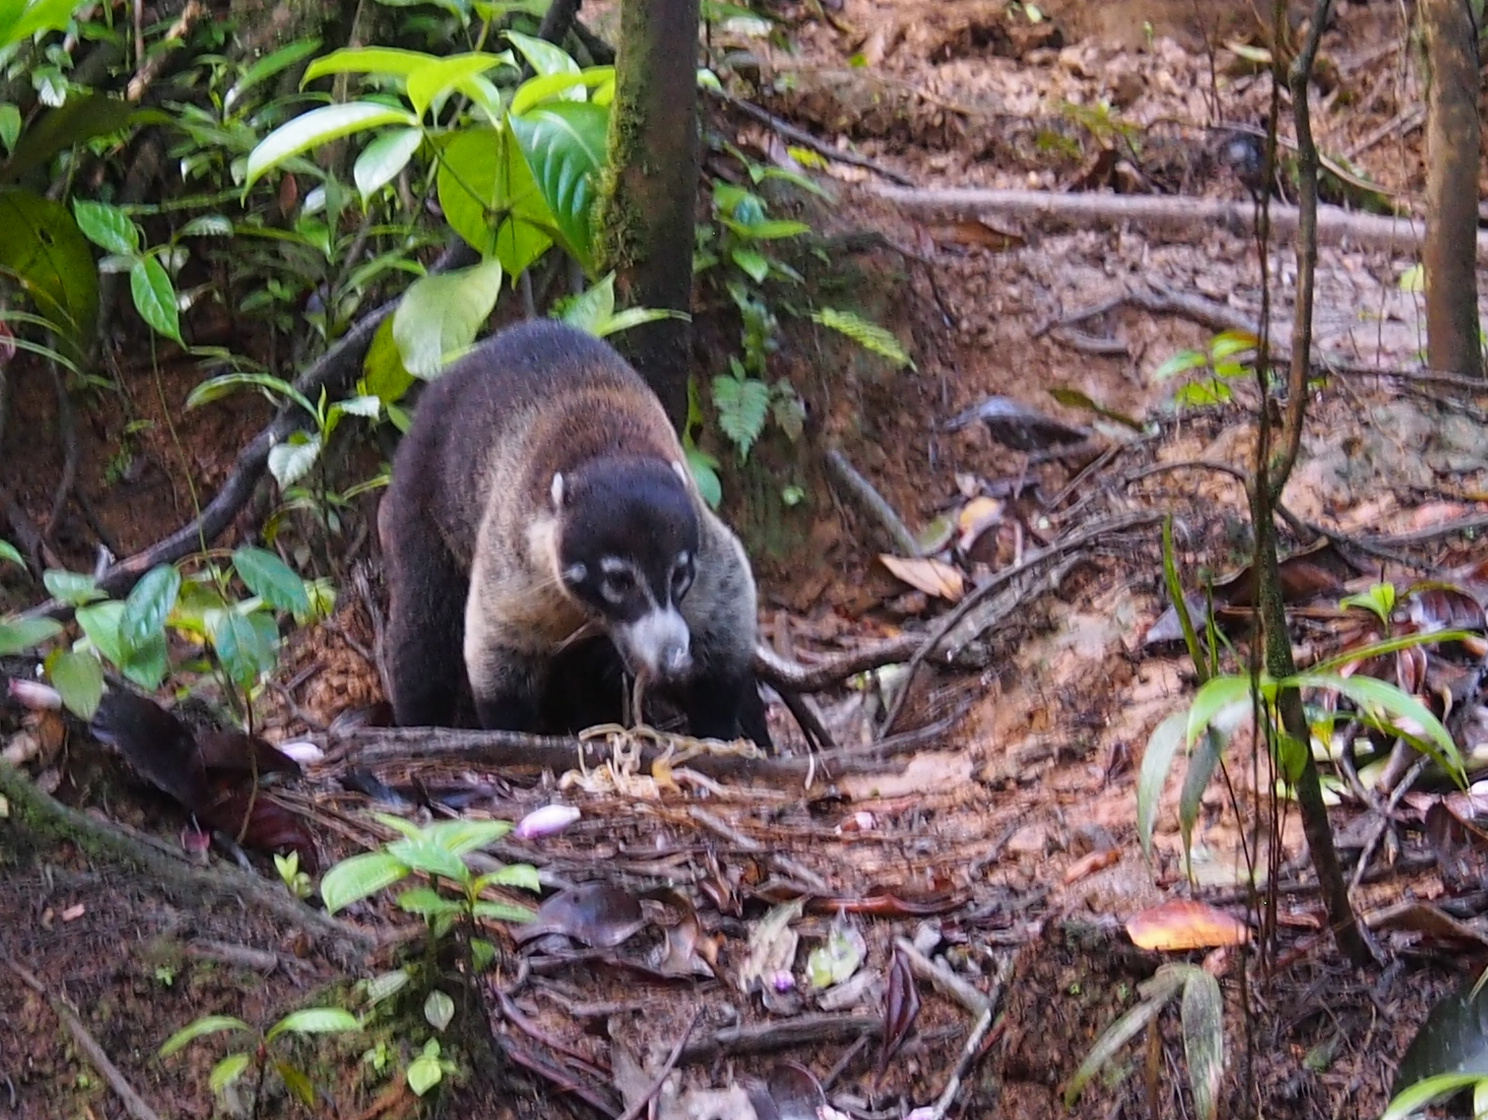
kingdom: Animalia
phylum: Chordata
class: Mammalia
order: Carnivora
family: Procyonidae
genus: Nasua
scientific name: Nasua narica
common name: White-nosed coati
